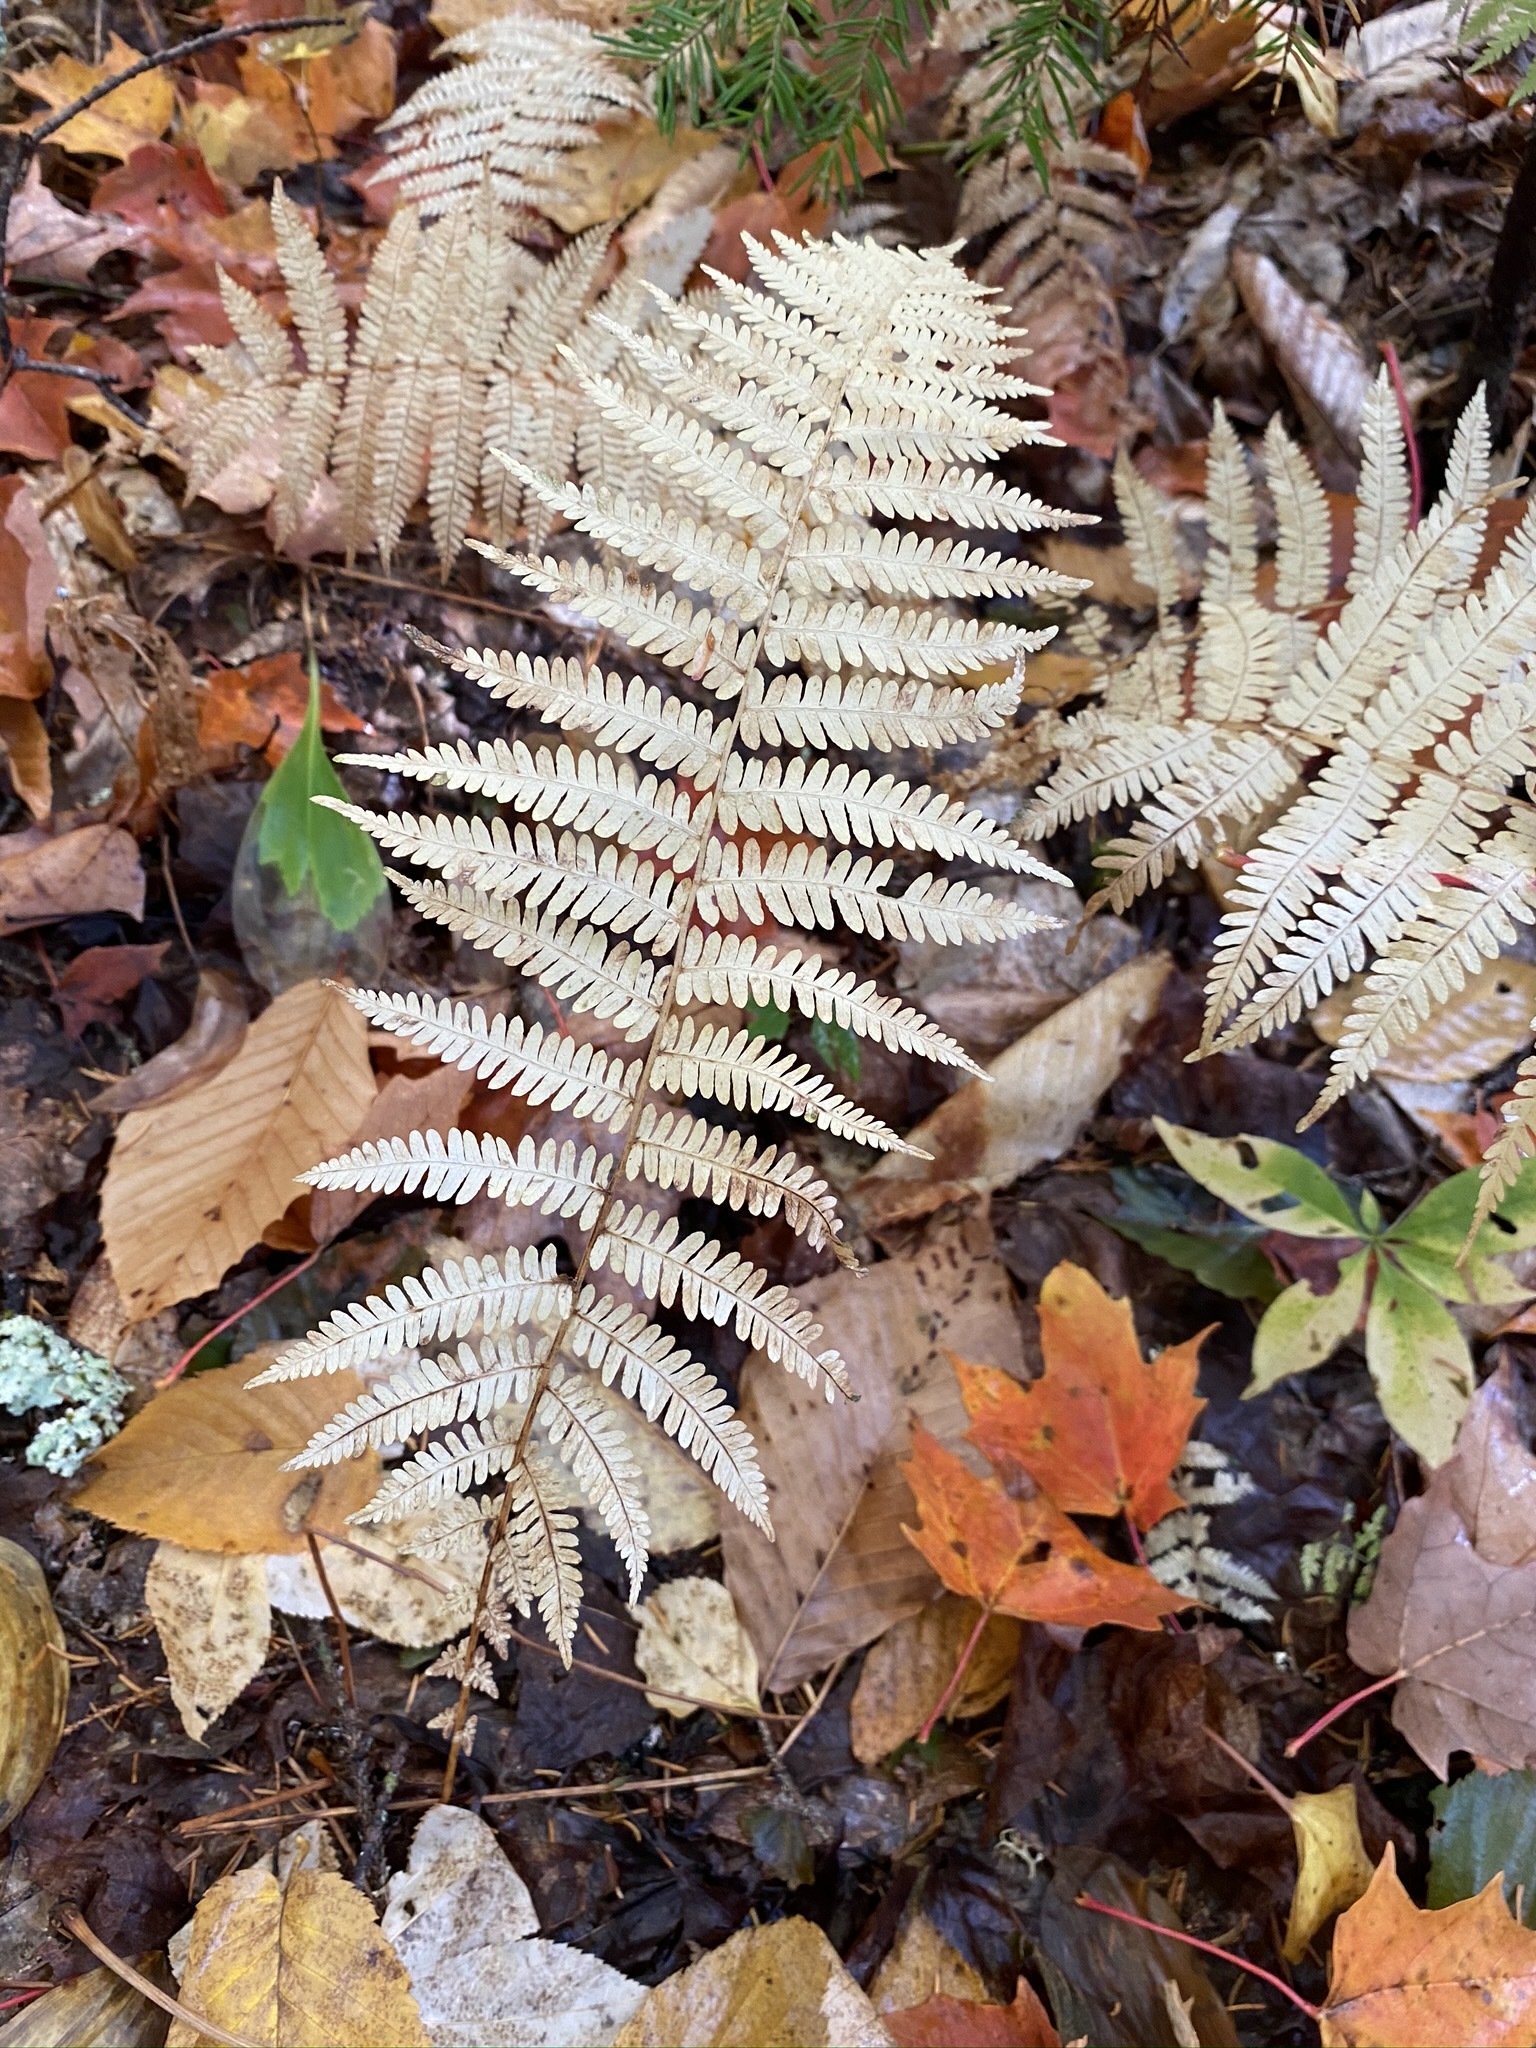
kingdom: Plantae
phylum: Tracheophyta
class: Polypodiopsida
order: Polypodiales
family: Thelypteridaceae
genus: Amauropelta
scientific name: Amauropelta noveboracensis
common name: New york fern
